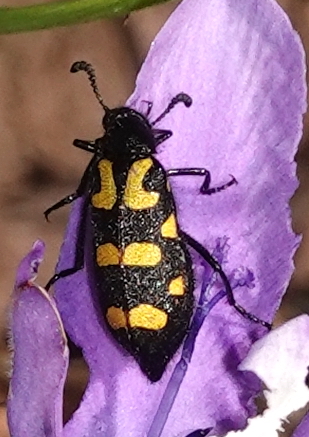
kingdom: Animalia
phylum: Arthropoda
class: Insecta
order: Coleoptera
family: Meloidae
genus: Ceroctis
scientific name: Ceroctis capensis
